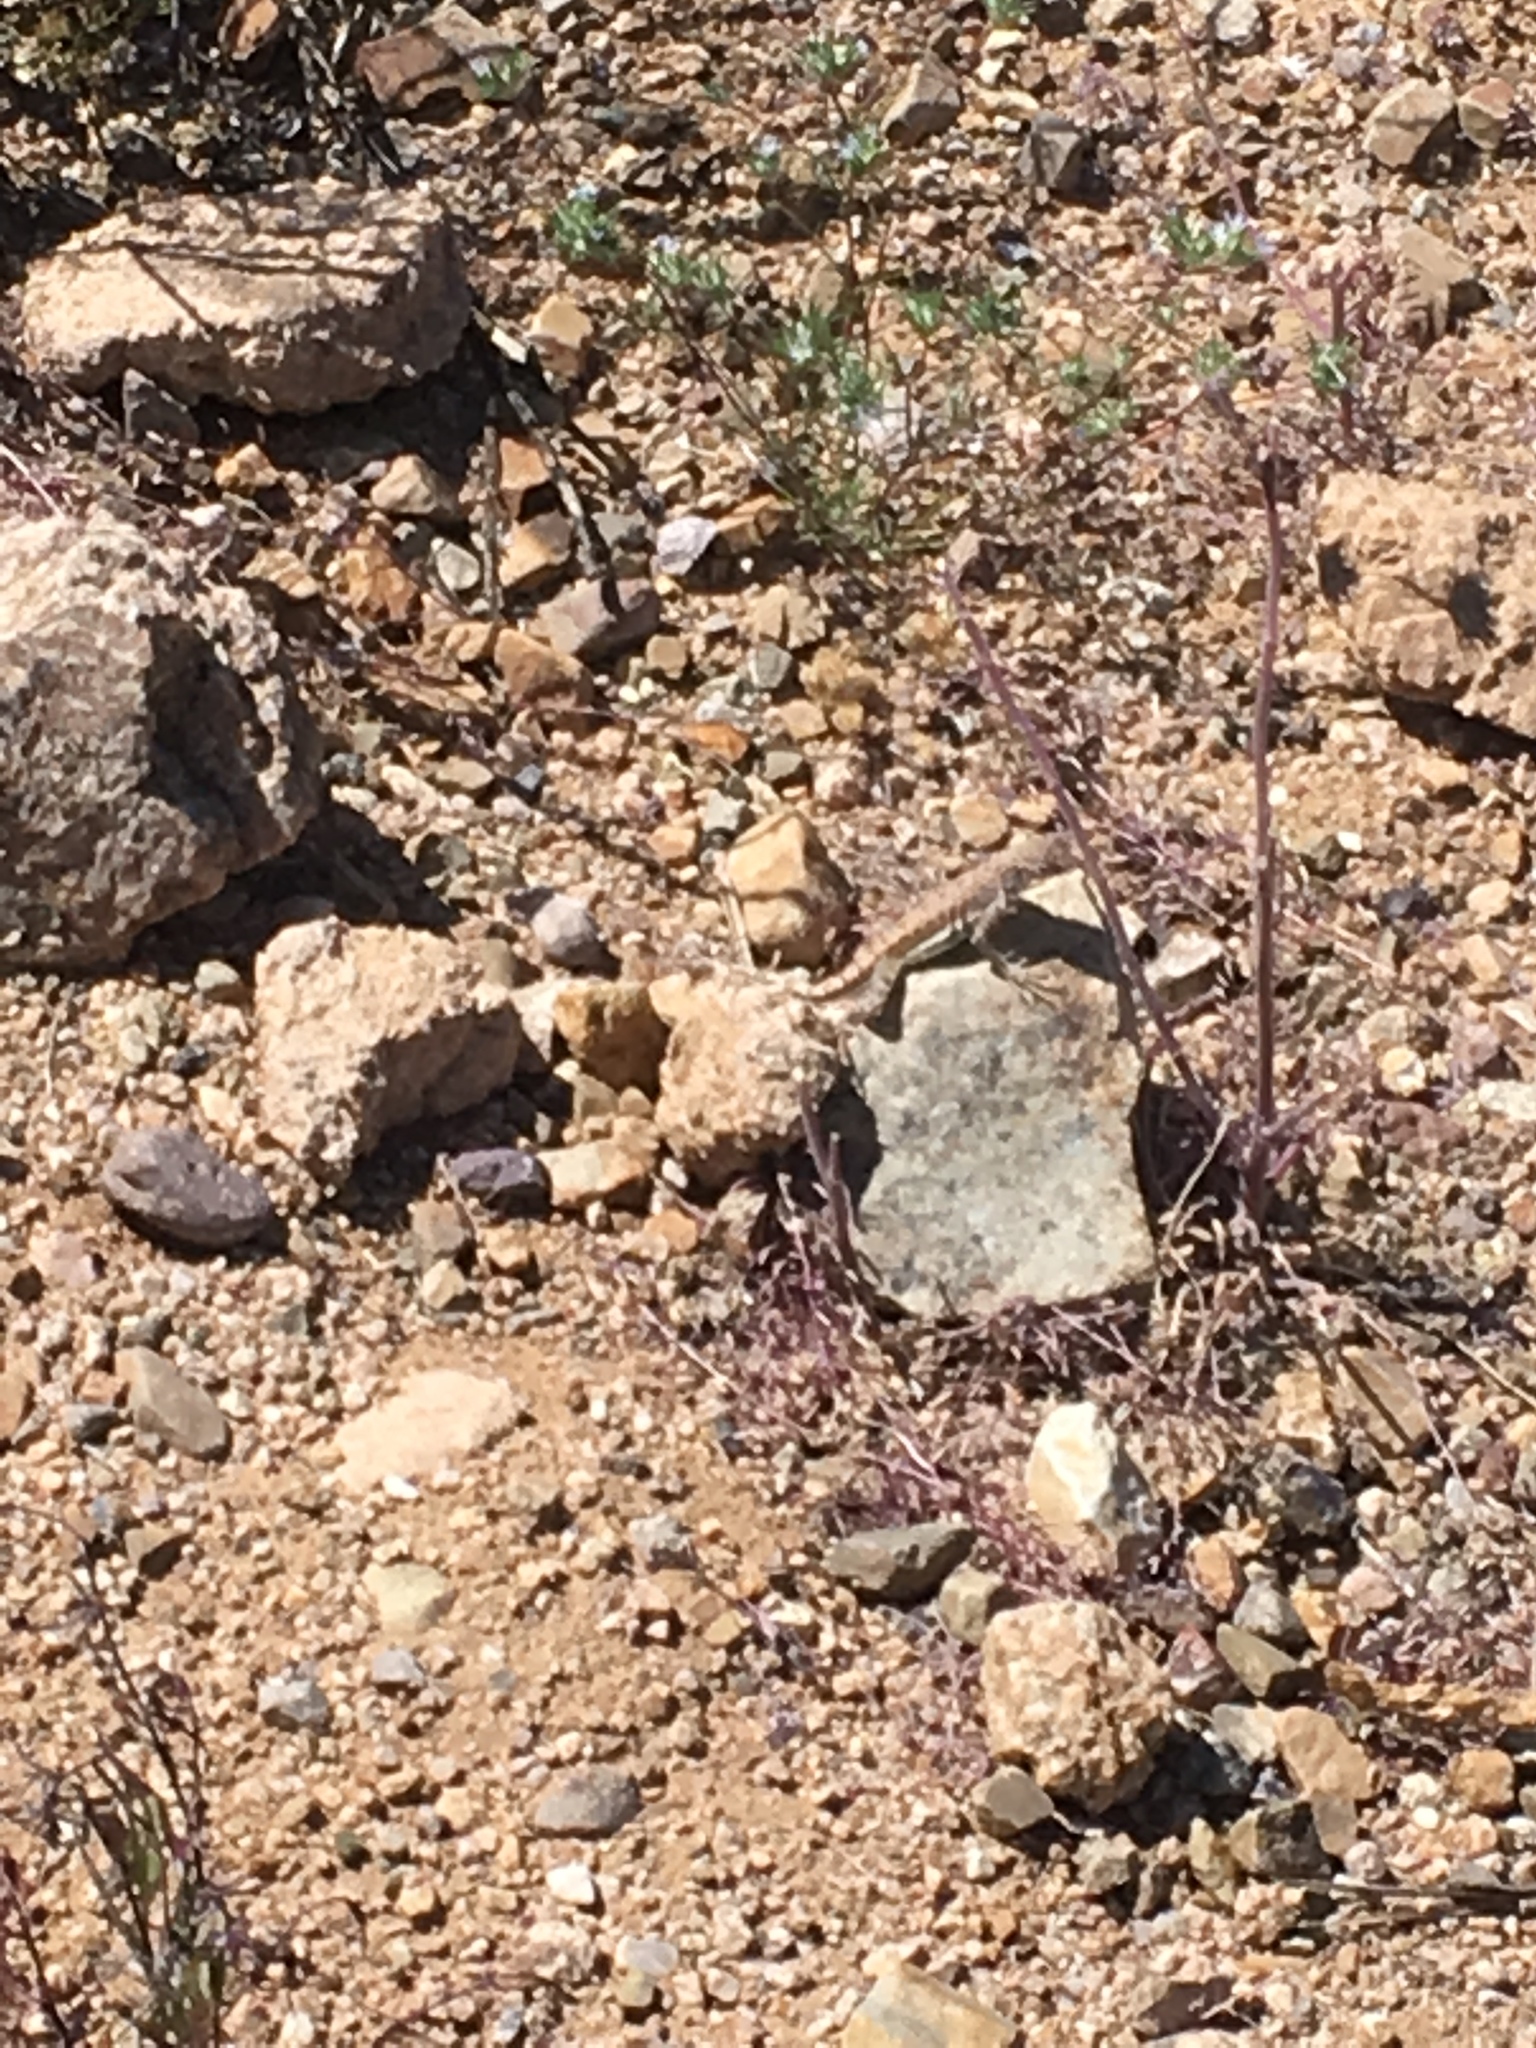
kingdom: Animalia
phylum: Chordata
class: Squamata
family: Phrynosomatidae
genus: Callisaurus
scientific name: Callisaurus draconoides
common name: Zebra-tailed lizard
